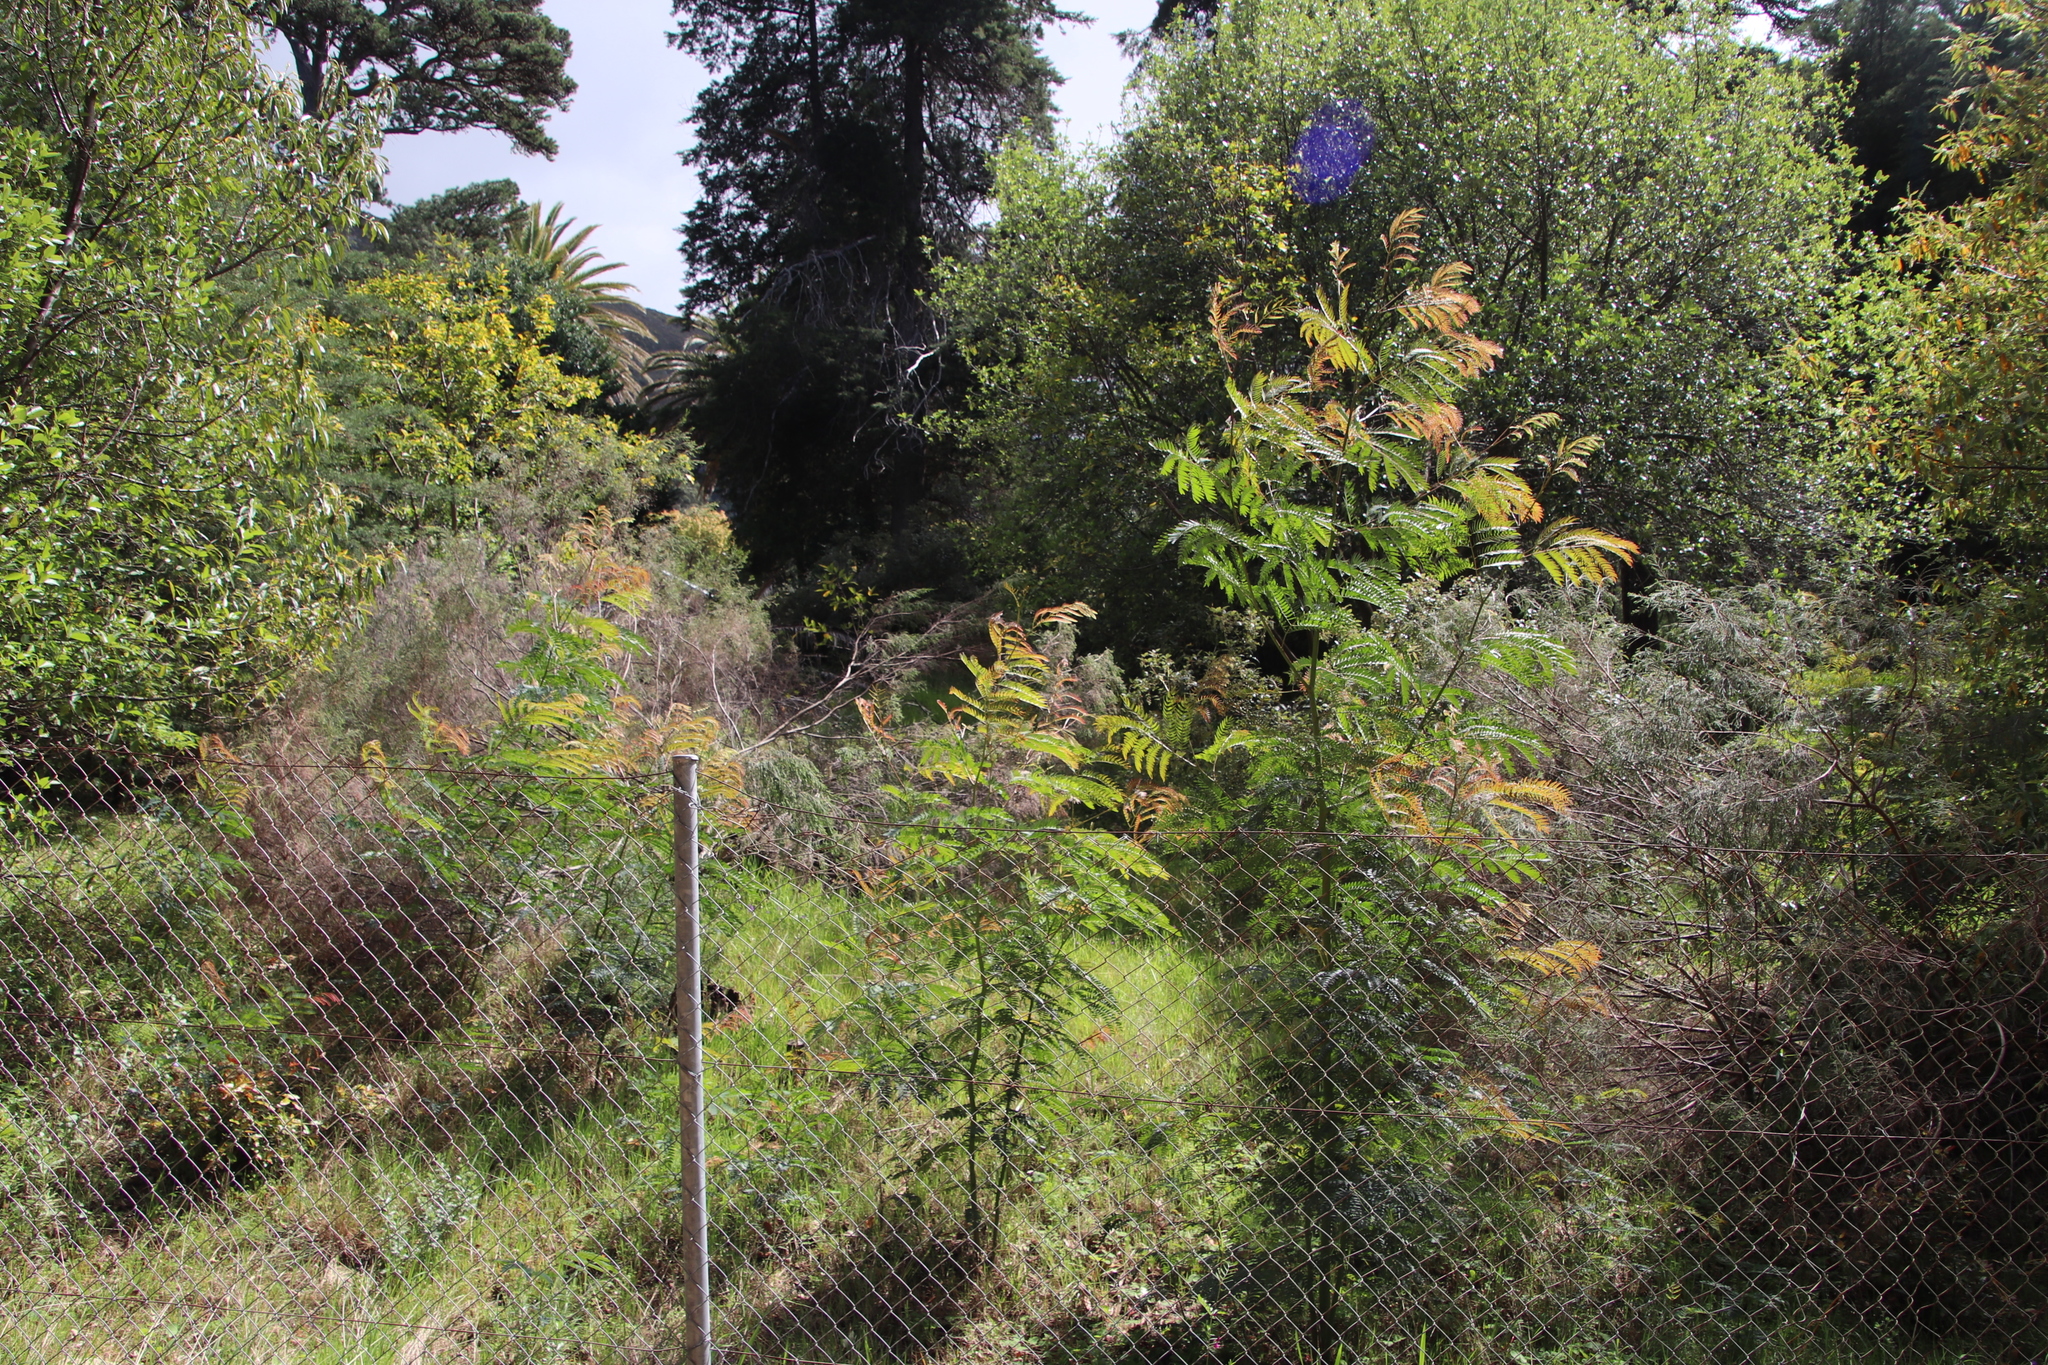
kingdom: Plantae
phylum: Tracheophyta
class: Magnoliopsida
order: Fabales
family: Fabaceae
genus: Acacia
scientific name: Acacia elata
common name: Cedar wattle
